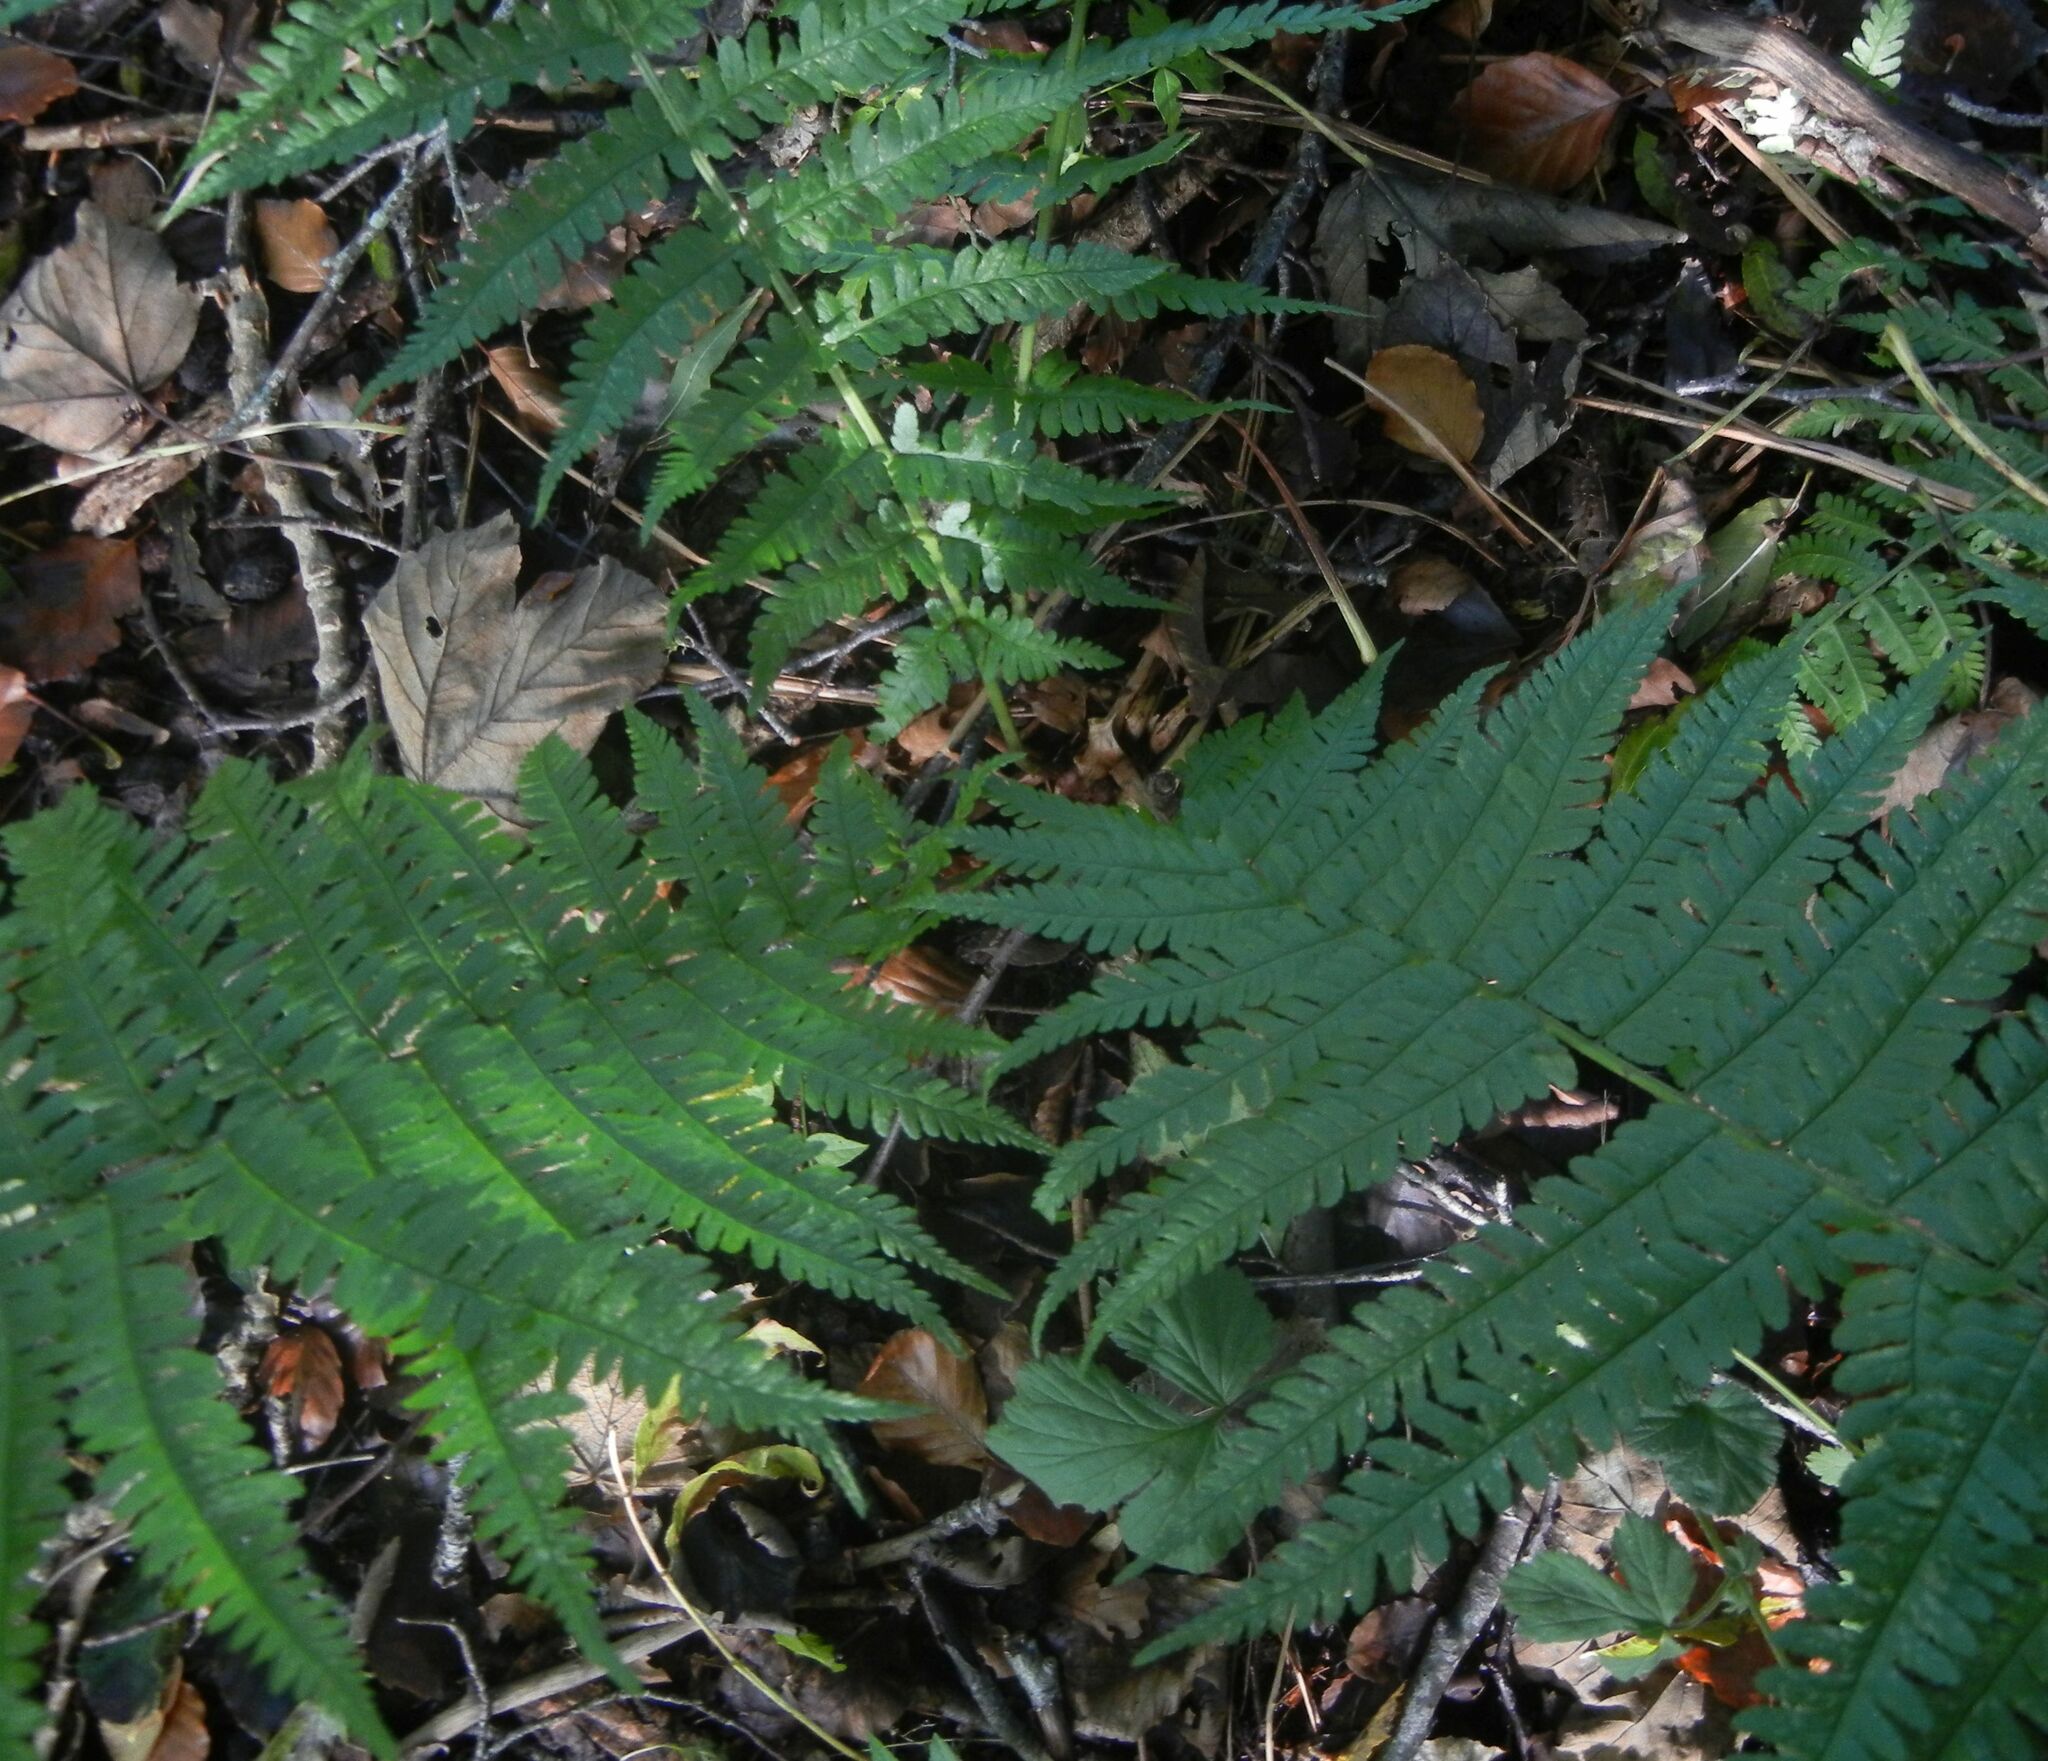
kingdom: Plantae
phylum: Tracheophyta
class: Polypodiopsida
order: Polypodiales
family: Dryopteridaceae
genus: Dryopteris
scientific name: Dryopteris filix-mas
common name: Male fern
